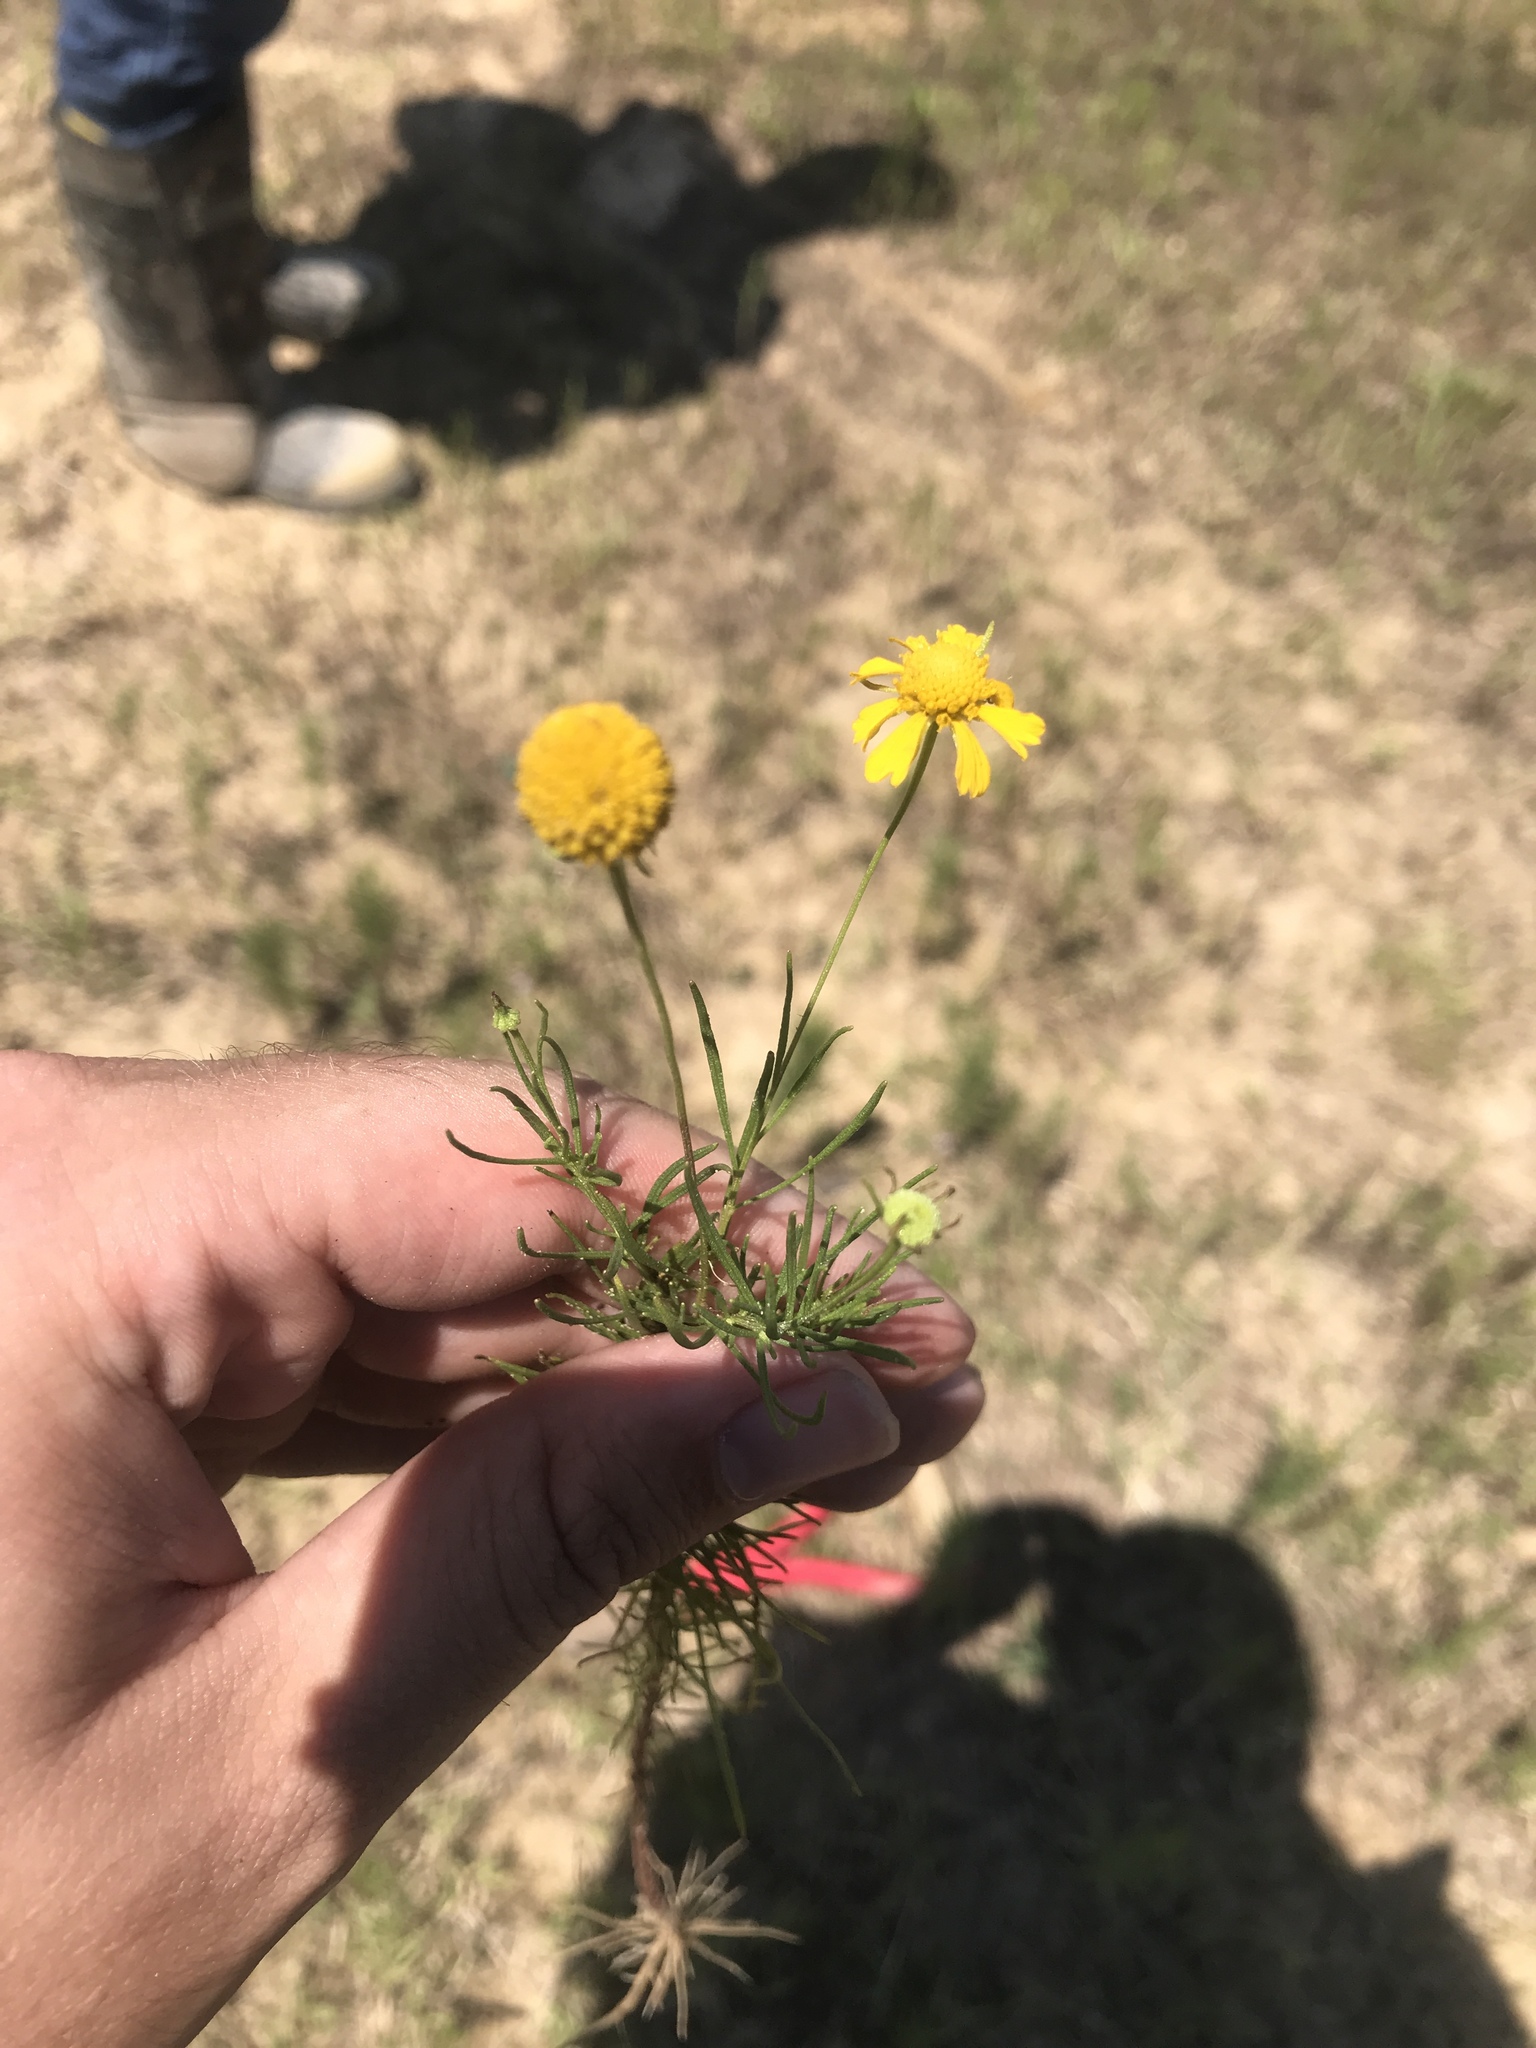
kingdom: Plantae
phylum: Tracheophyta
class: Magnoliopsida
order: Asterales
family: Asteraceae
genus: Helenium
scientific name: Helenium amarum
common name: Bitter sneezeweed
